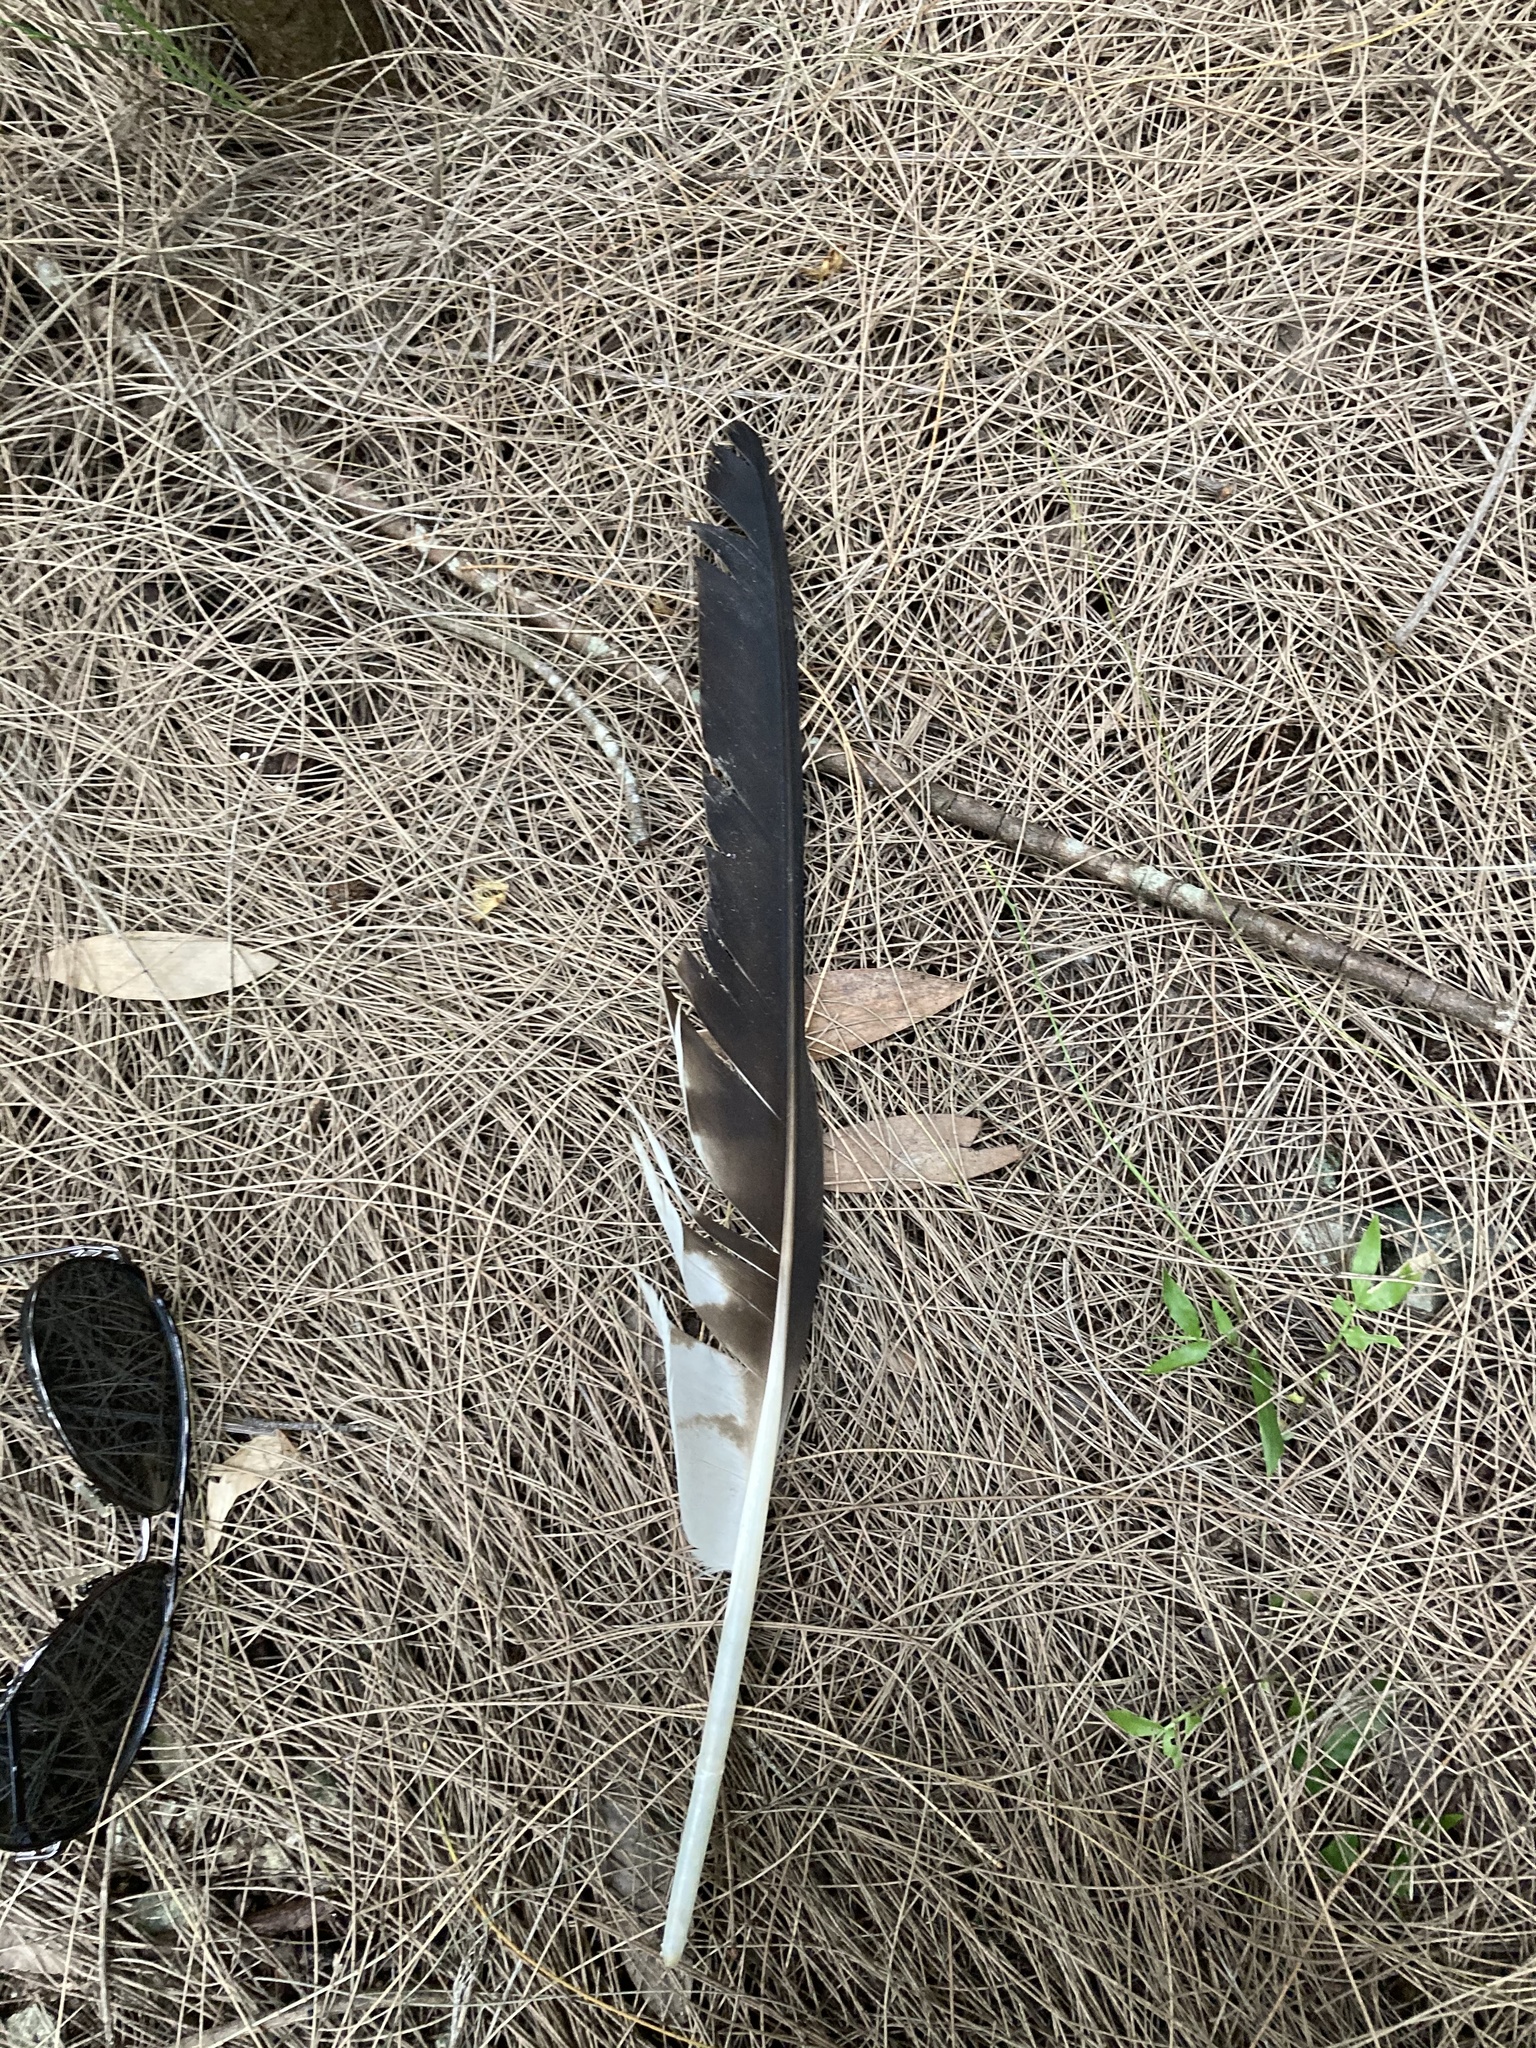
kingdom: Animalia
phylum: Chordata
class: Aves
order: Accipitriformes
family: Pandionidae
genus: Pandion
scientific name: Pandion haliaetus
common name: Osprey
